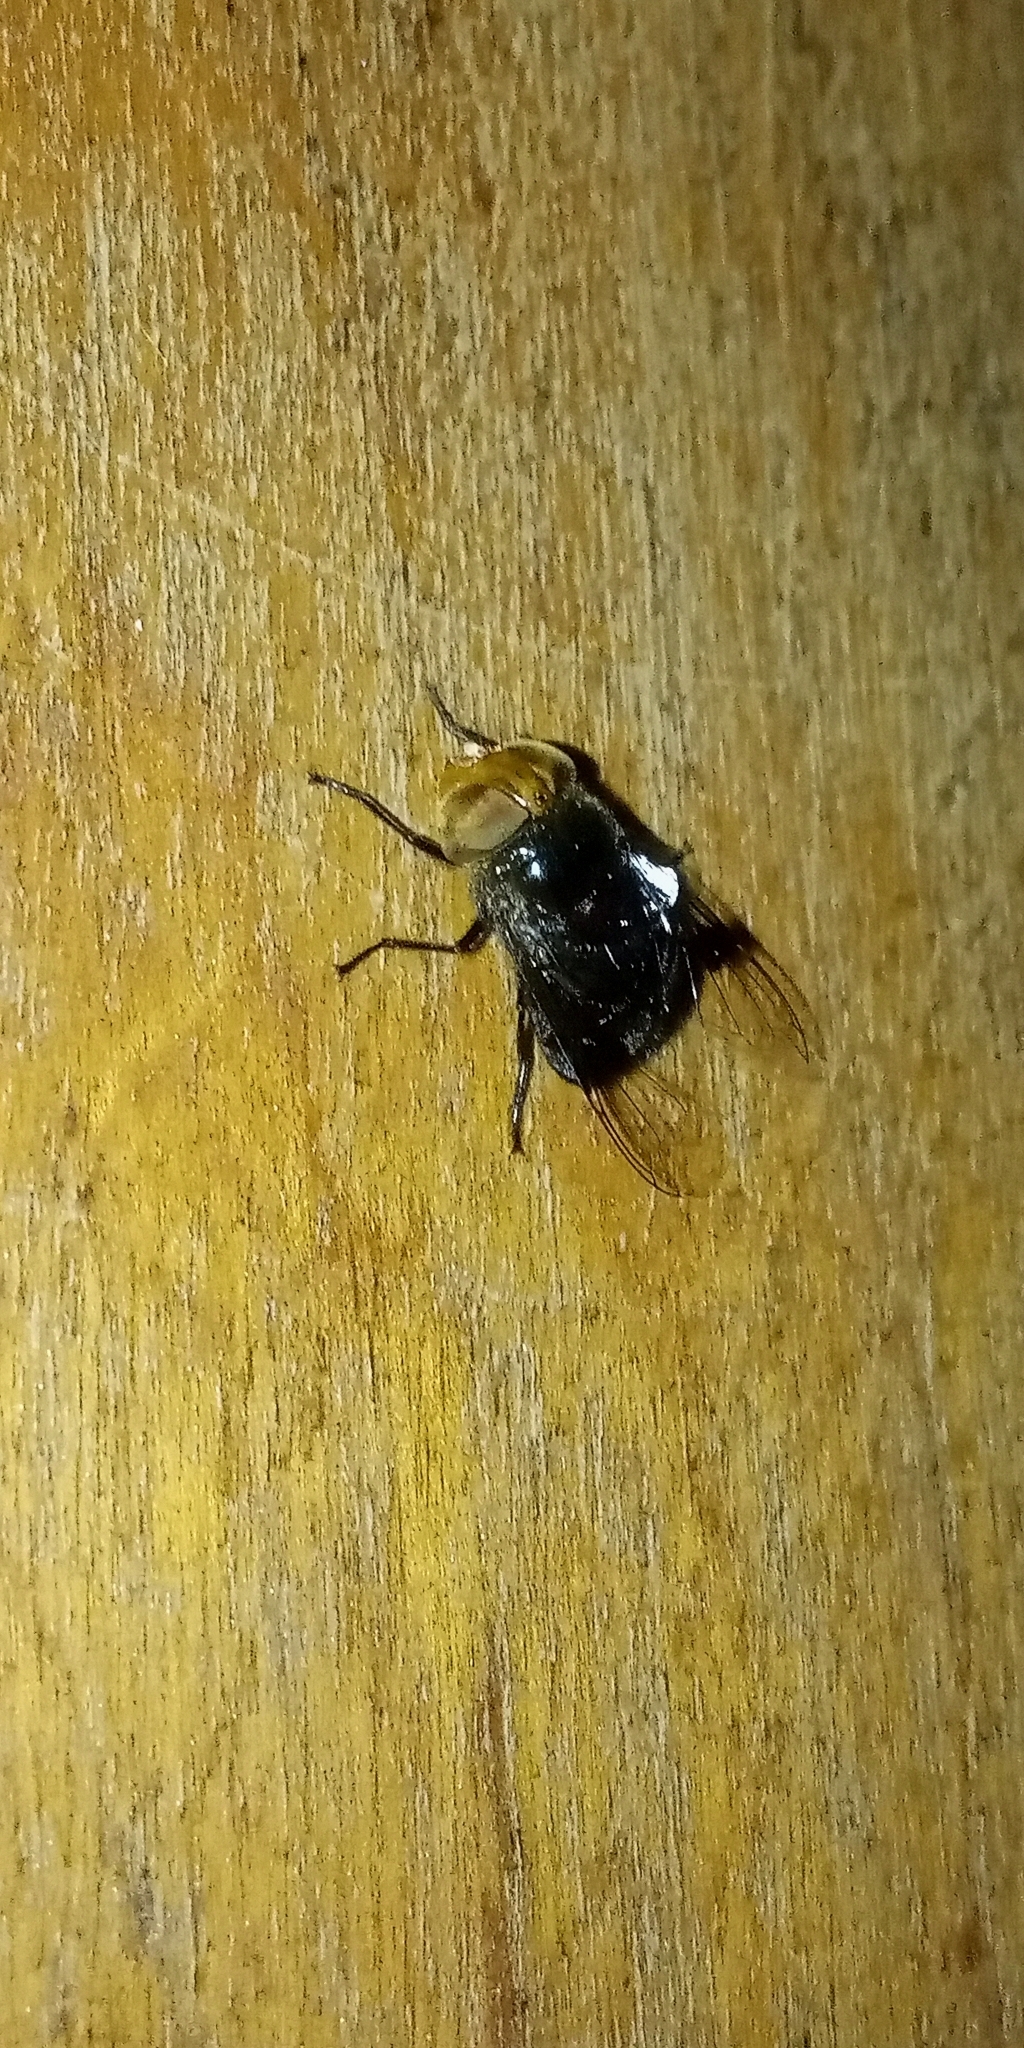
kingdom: Animalia
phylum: Arthropoda
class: Insecta
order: Diptera
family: Syrphidae
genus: Copestylum
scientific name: Copestylum spinigerum
